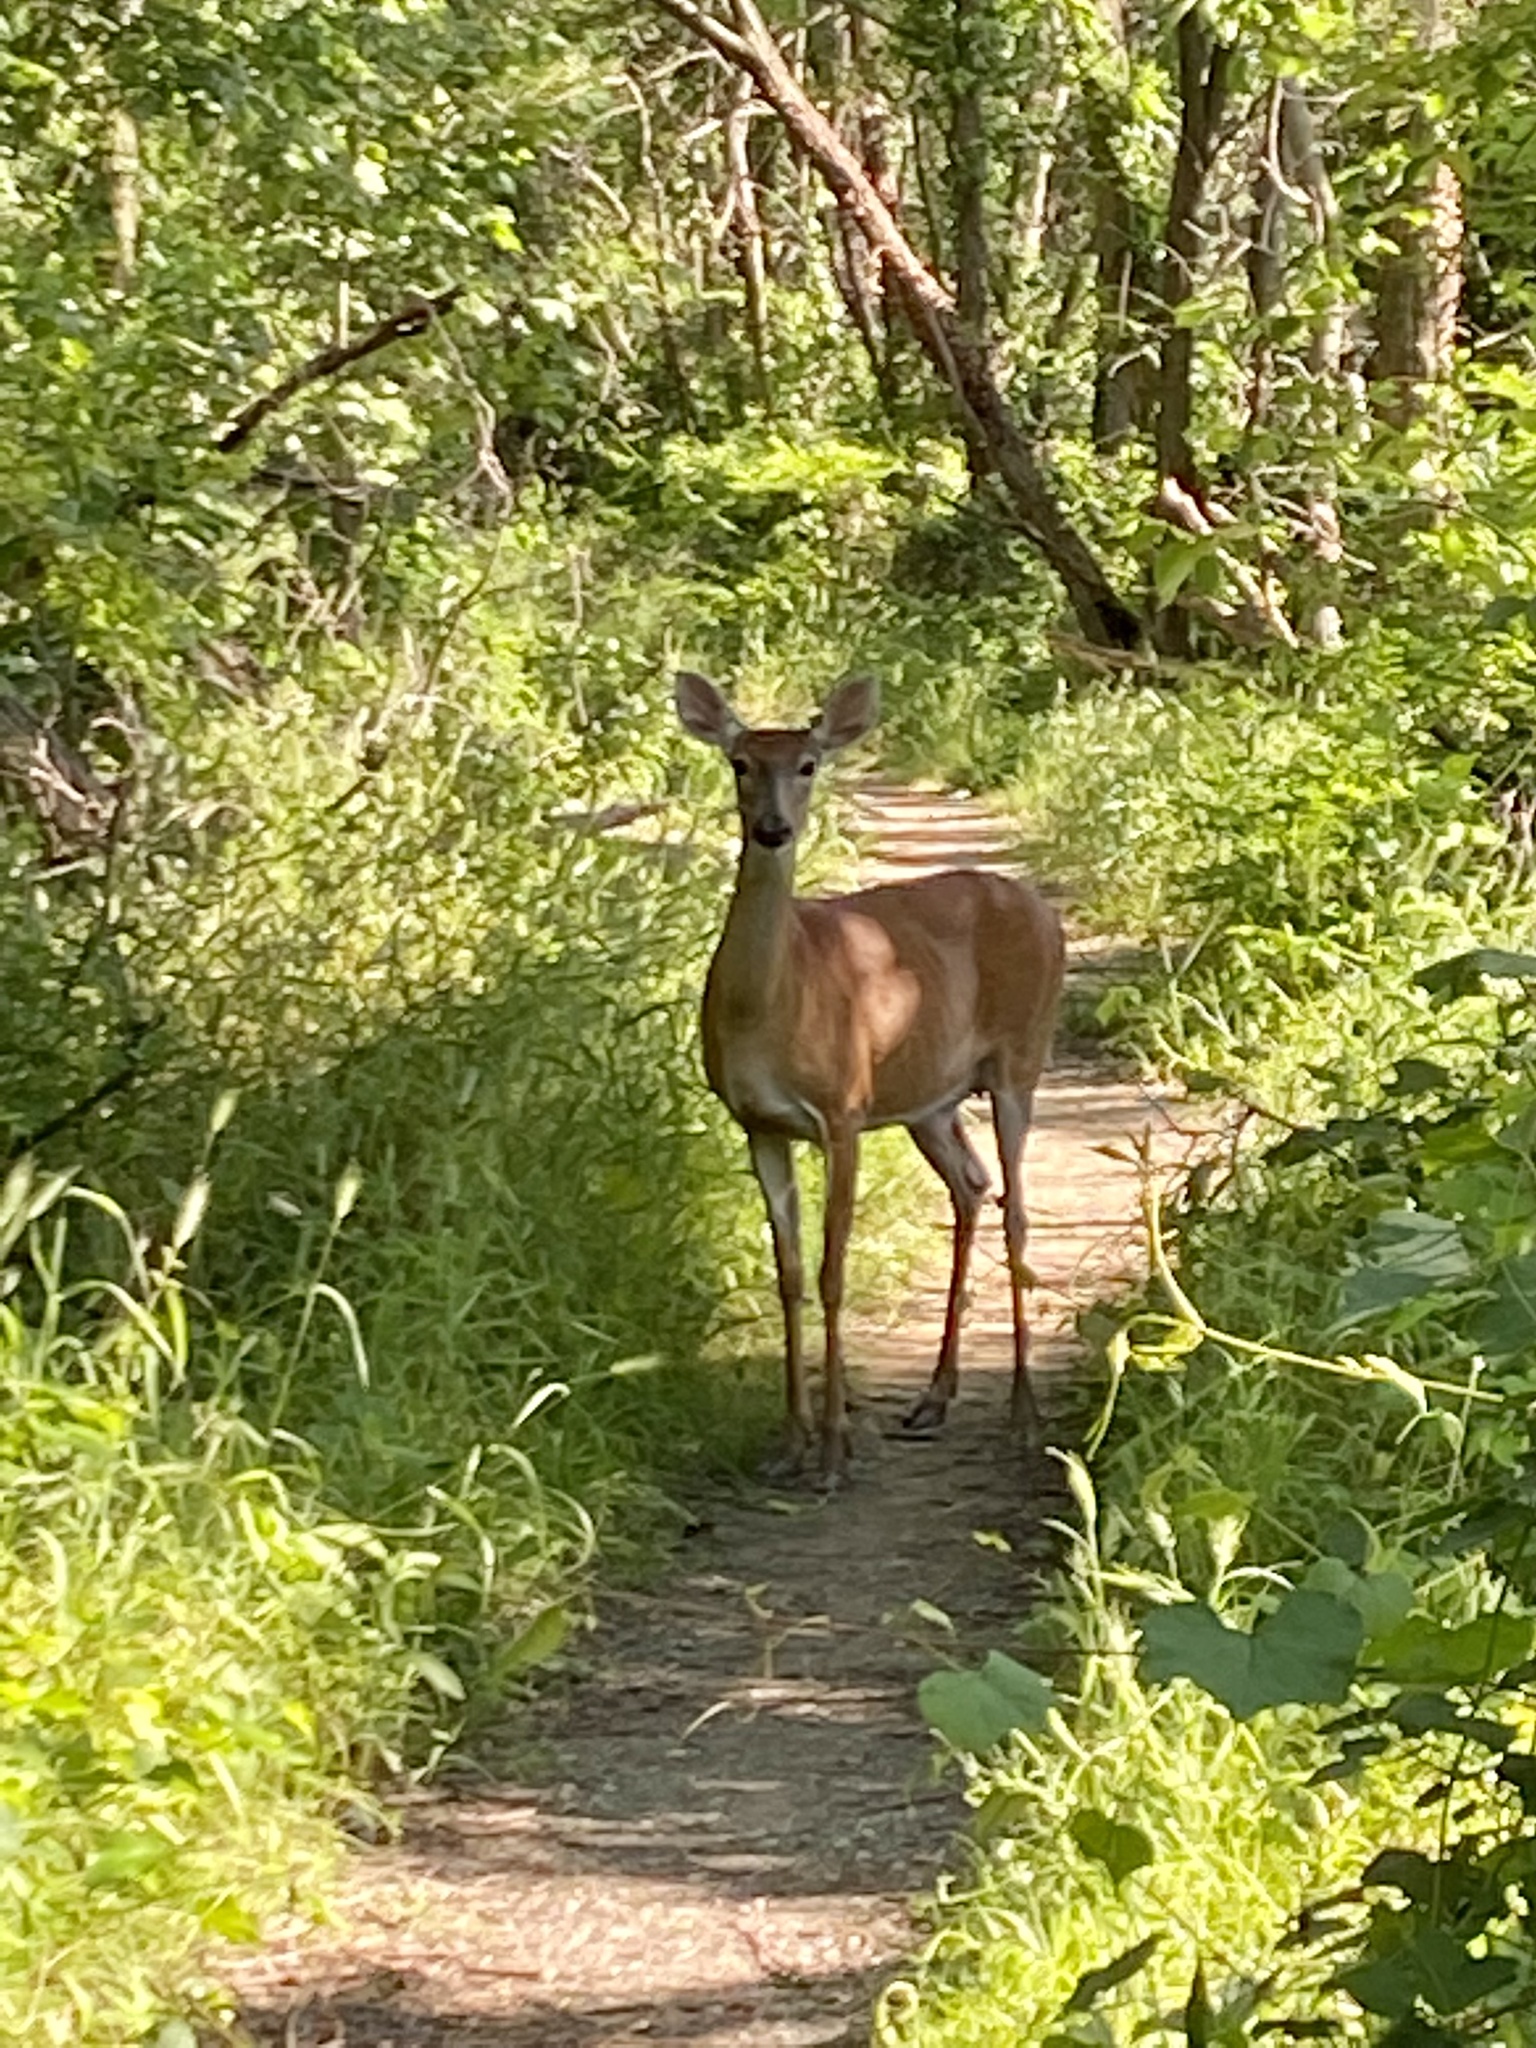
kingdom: Animalia
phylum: Chordata
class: Mammalia
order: Artiodactyla
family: Cervidae
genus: Odocoileus
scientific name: Odocoileus virginianus
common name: White-tailed deer
